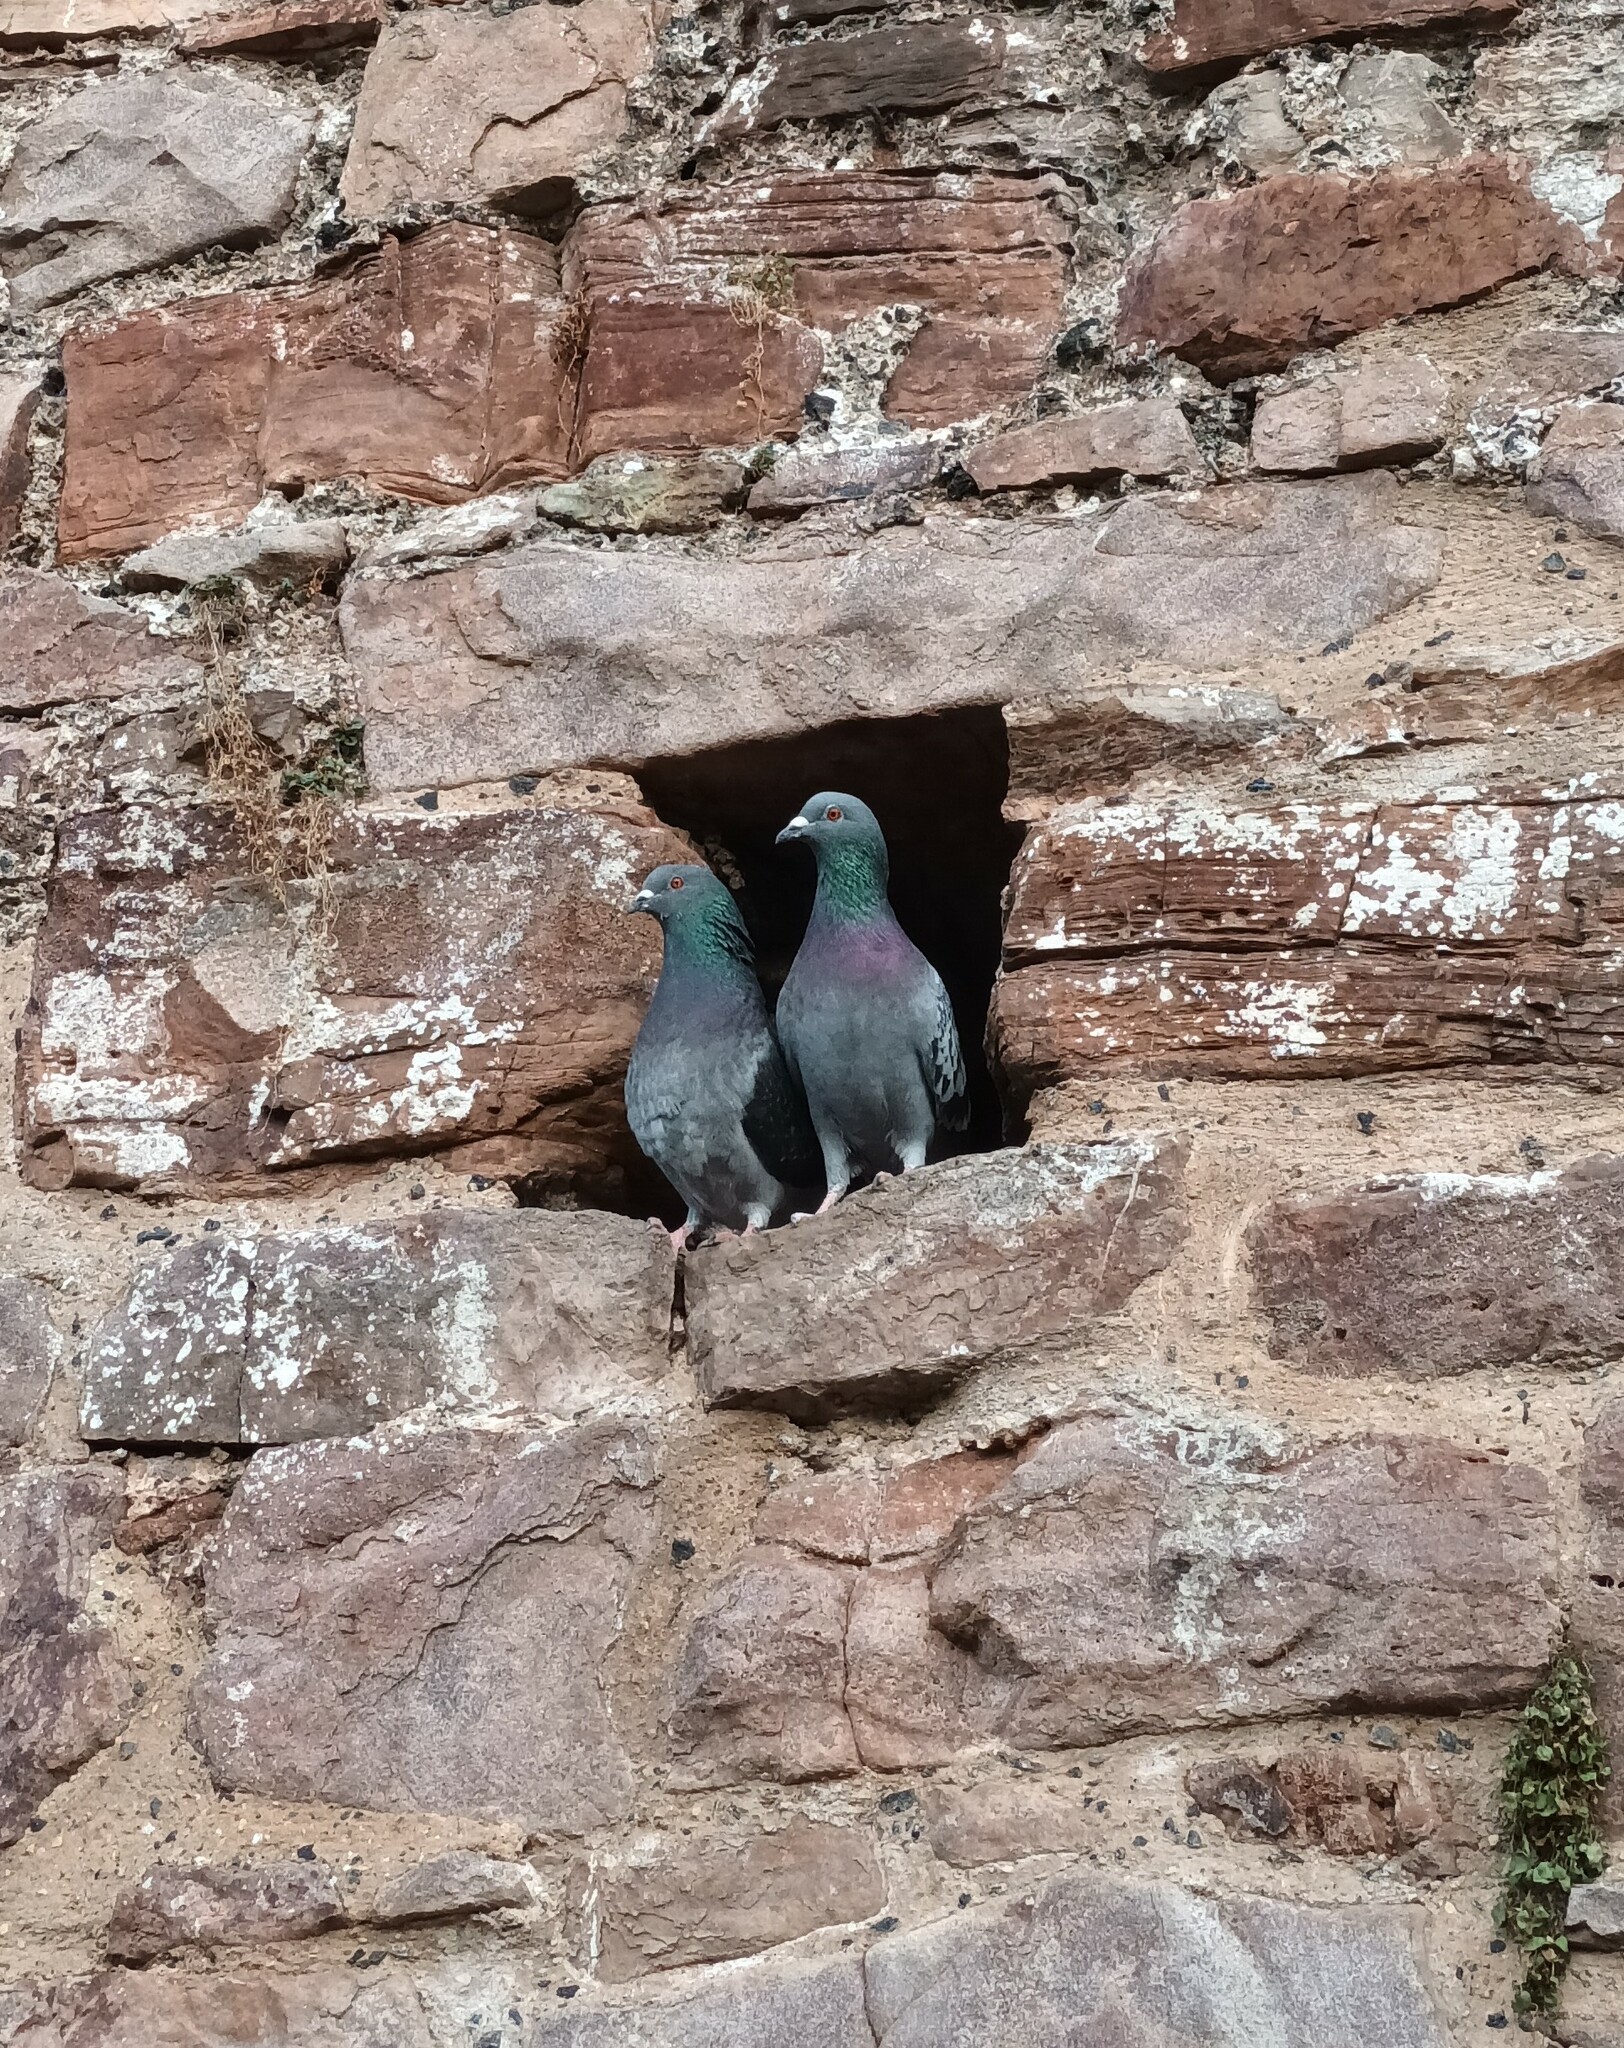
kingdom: Animalia
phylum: Chordata
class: Aves
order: Columbiformes
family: Columbidae
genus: Columba
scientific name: Columba livia
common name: Rock pigeon
